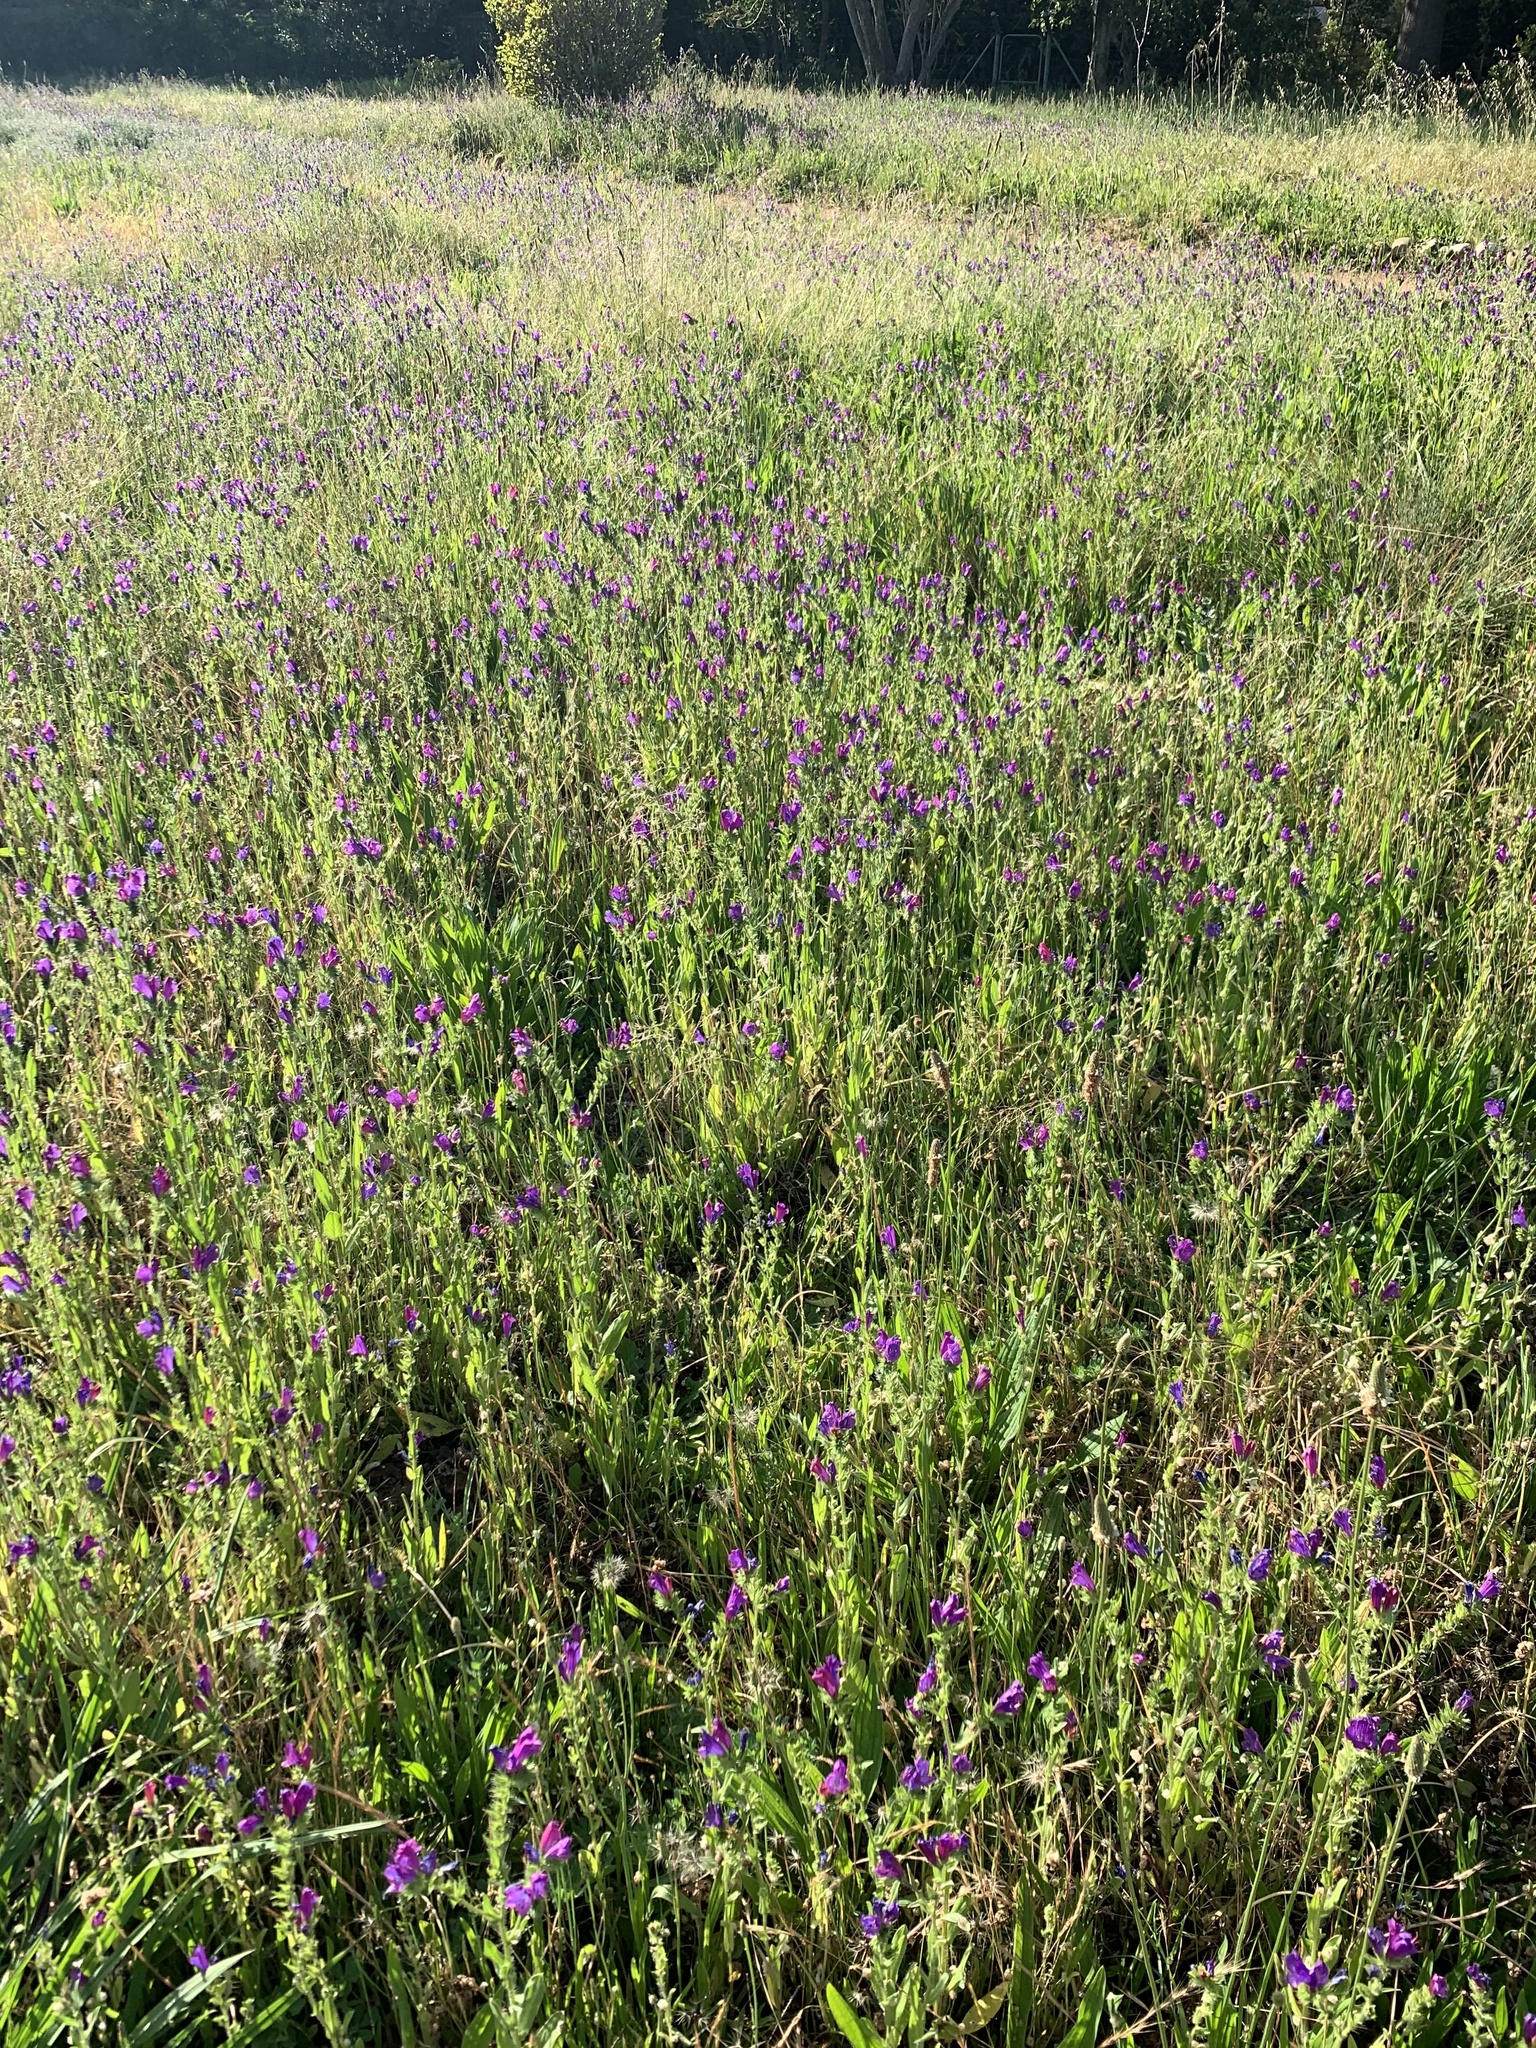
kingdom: Plantae
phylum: Tracheophyta
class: Magnoliopsida
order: Boraginales
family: Boraginaceae
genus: Echium
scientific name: Echium plantagineum
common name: Purple viper's-bugloss
